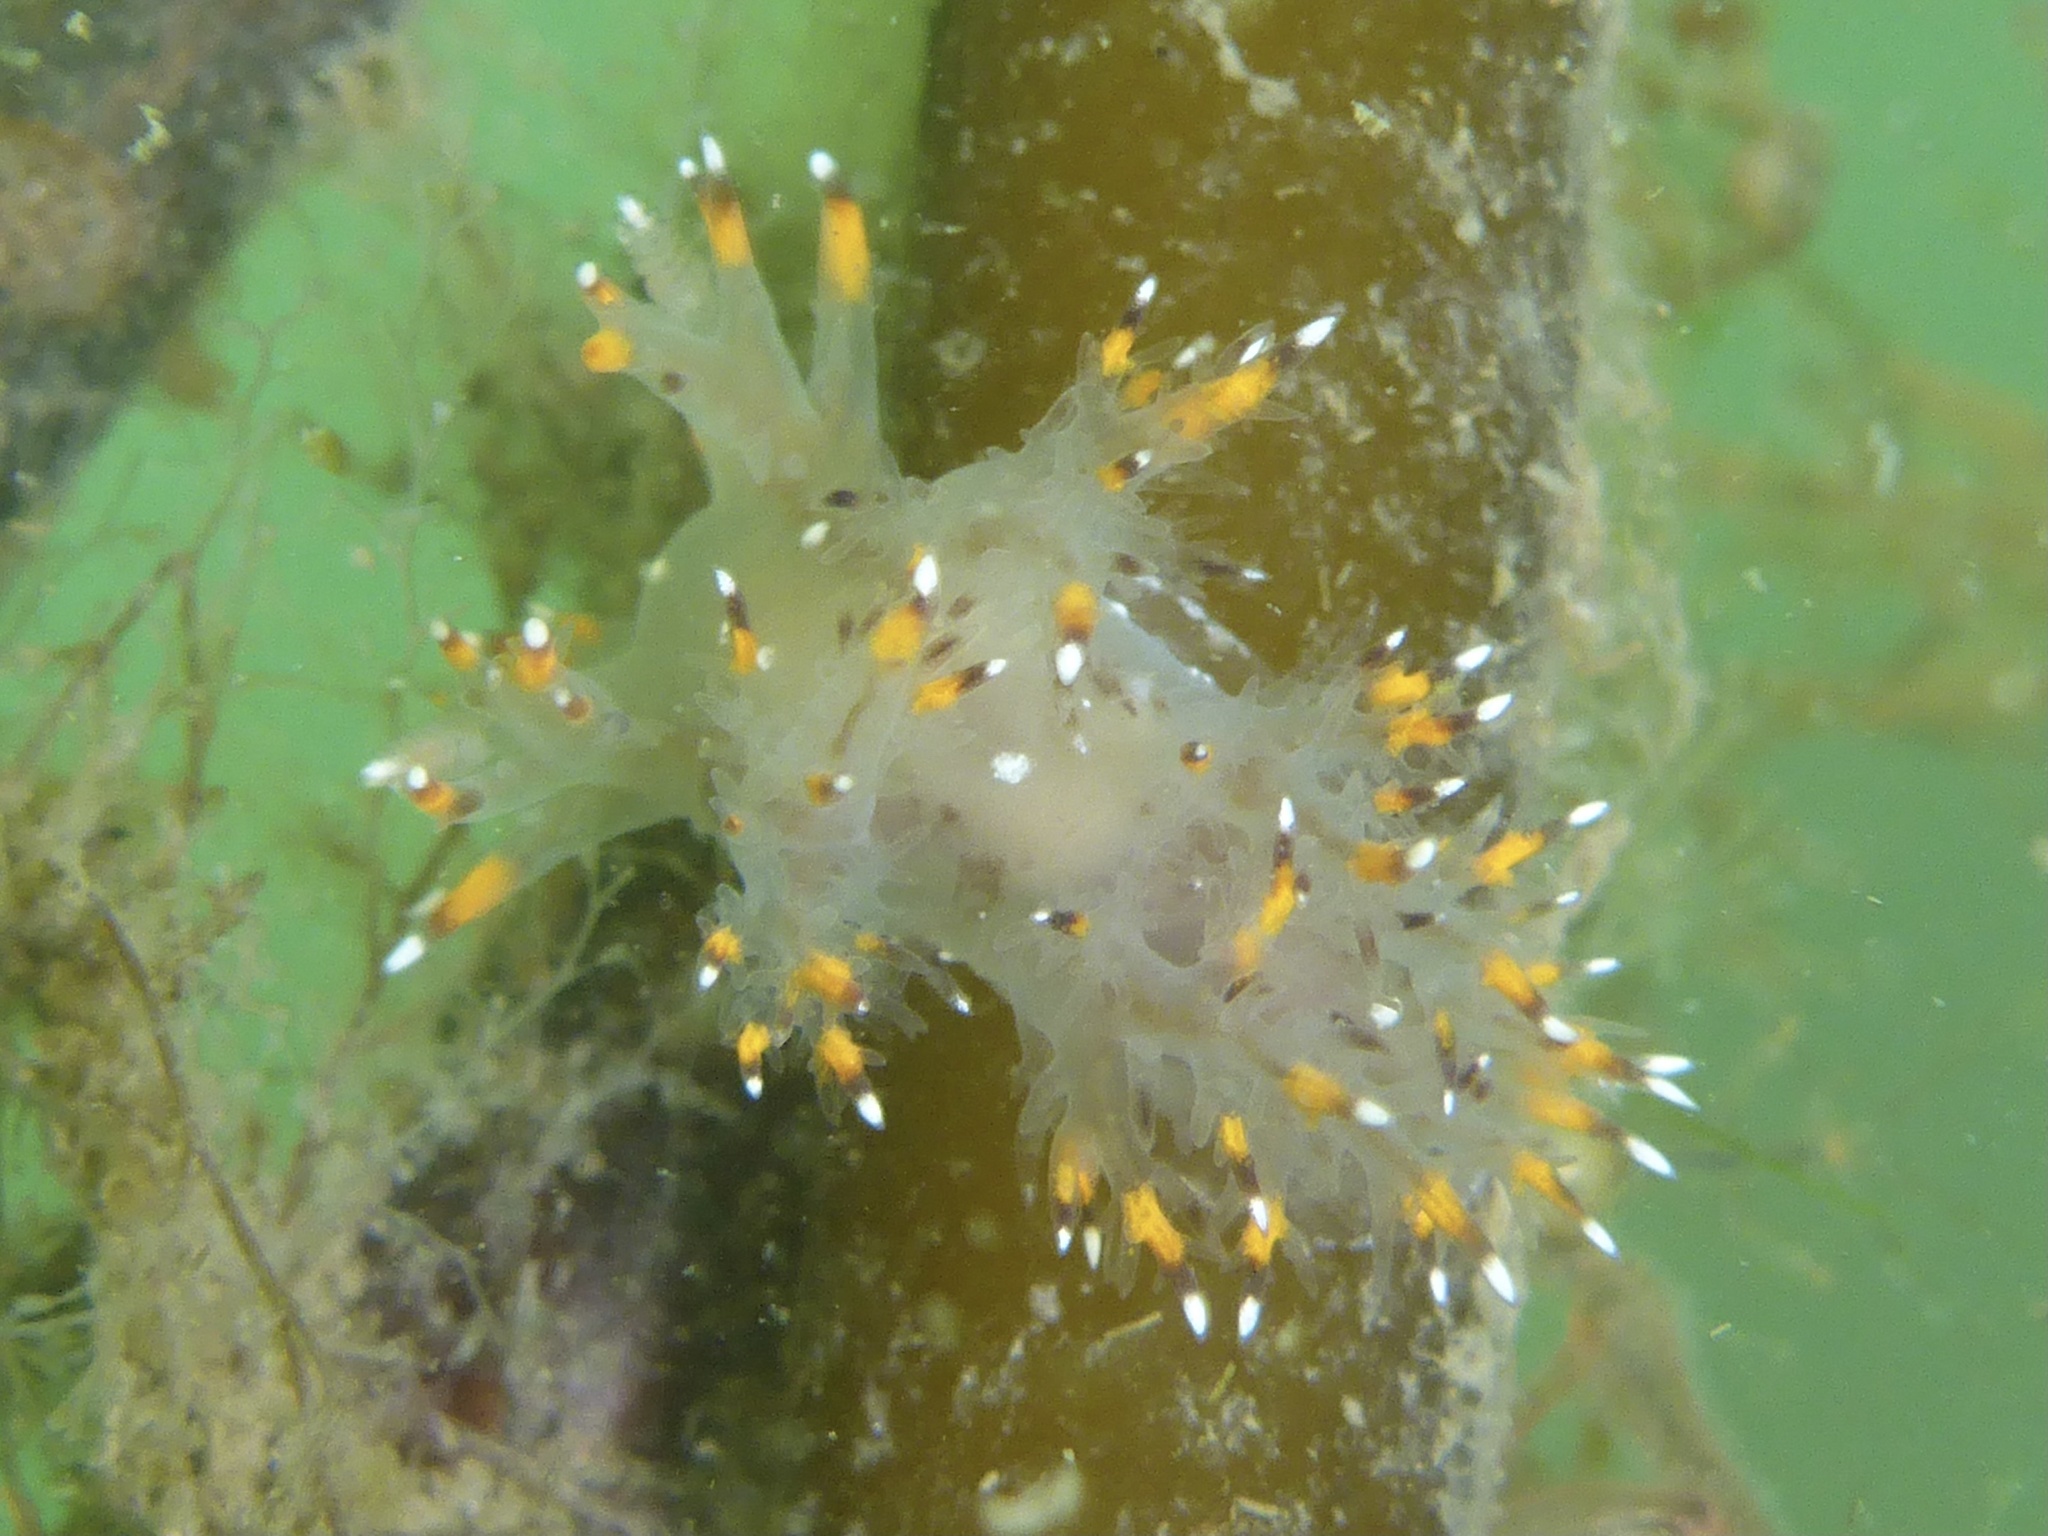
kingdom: Animalia
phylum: Mollusca
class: Gastropoda
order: Nudibranchia
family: Dendronotidae
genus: Dendronotus
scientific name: Dendronotus iris
